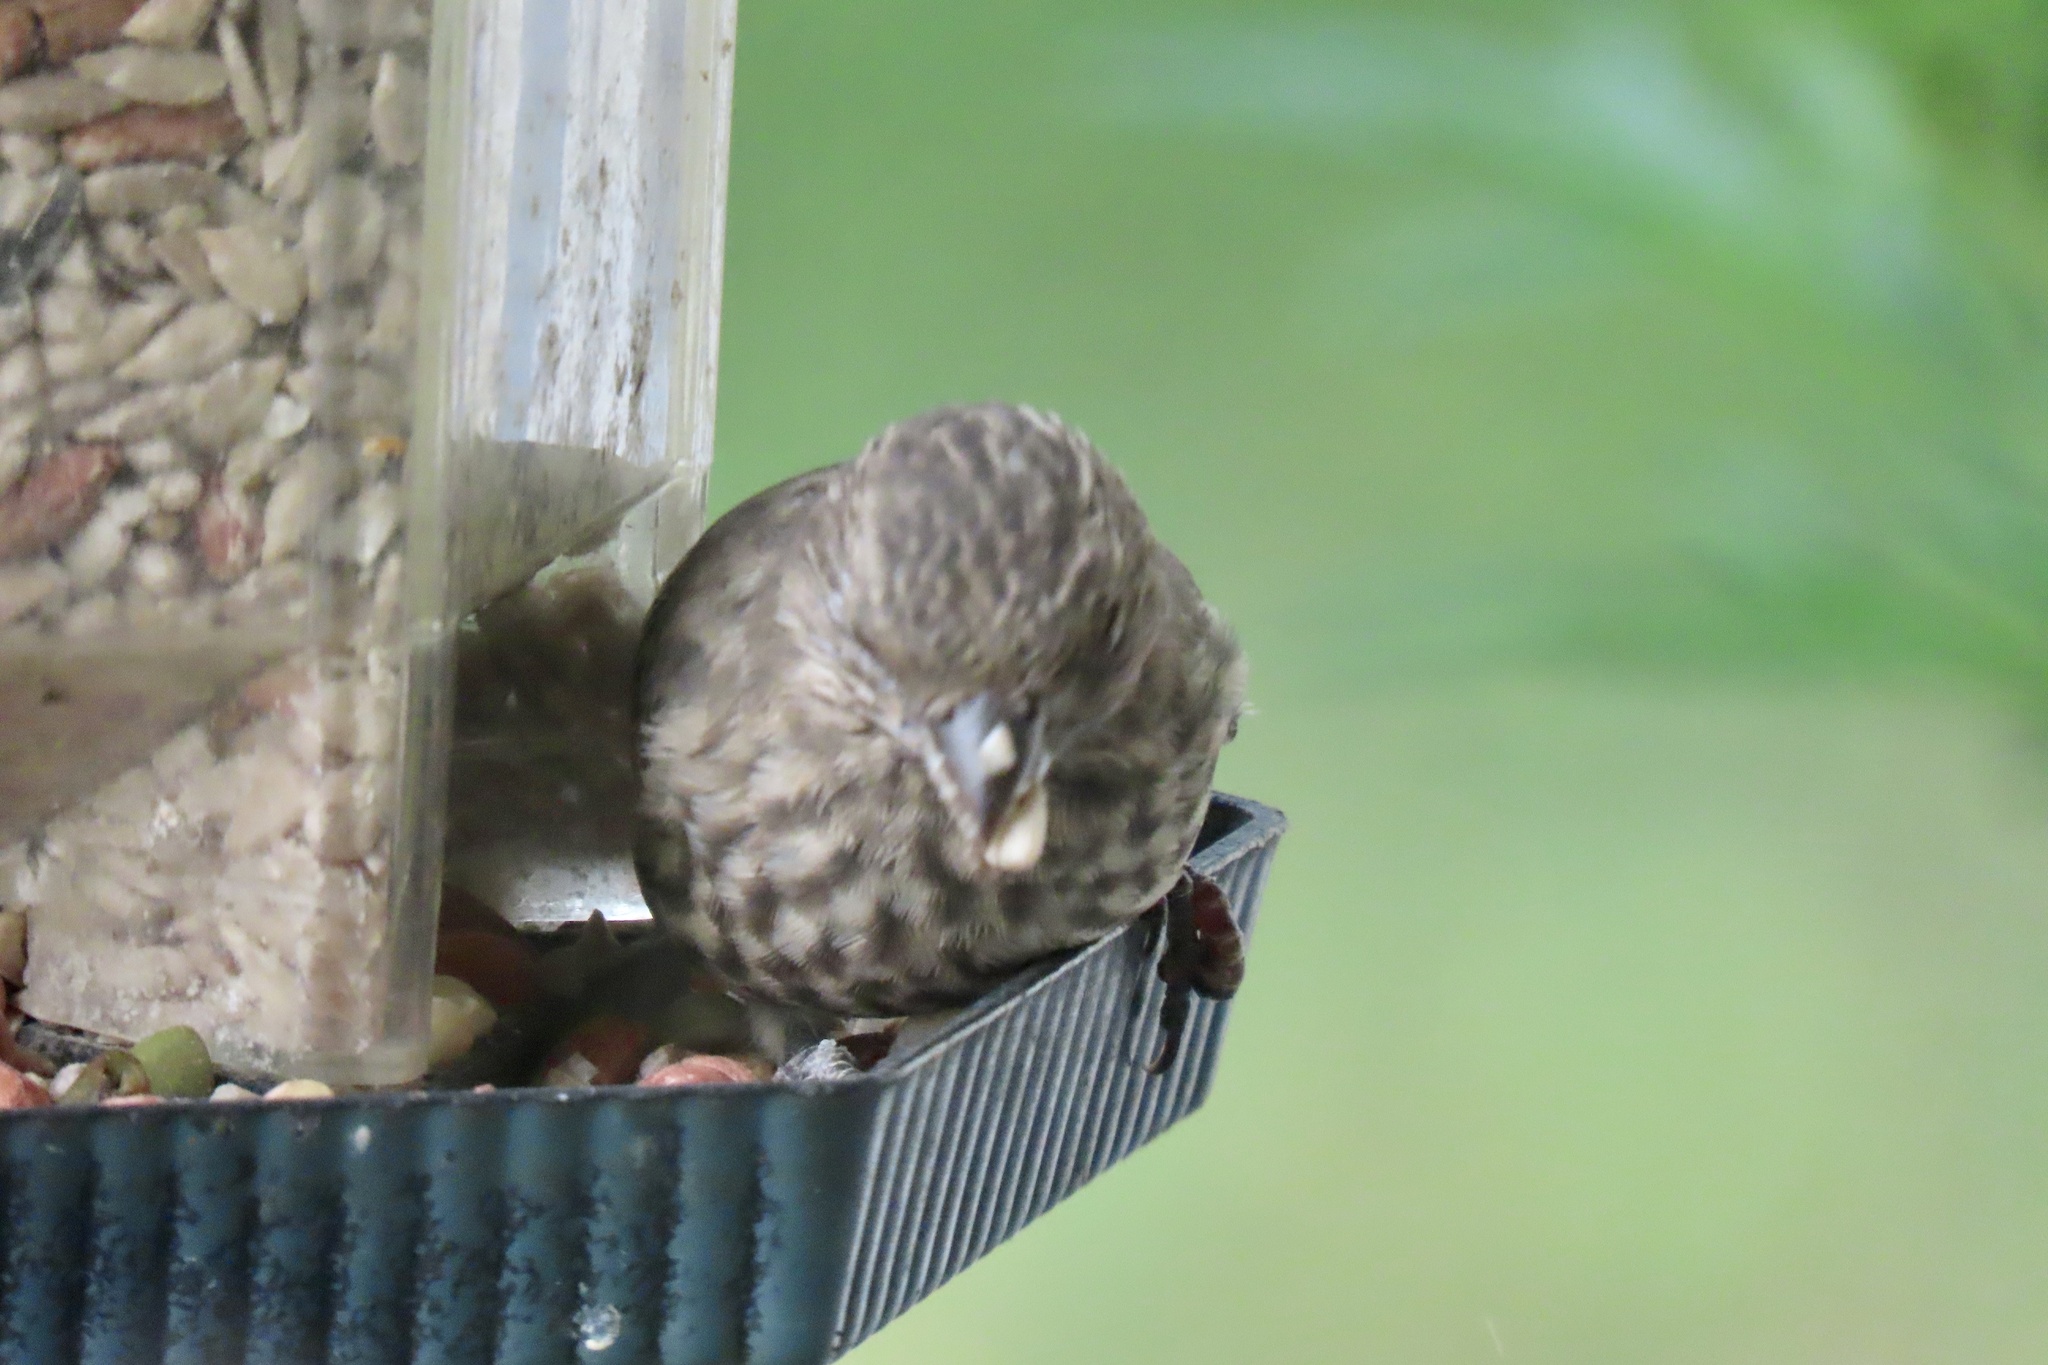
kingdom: Animalia
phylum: Chordata
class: Aves
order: Passeriformes
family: Fringillidae
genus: Haemorhous
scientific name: Haemorhous mexicanus
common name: House finch
